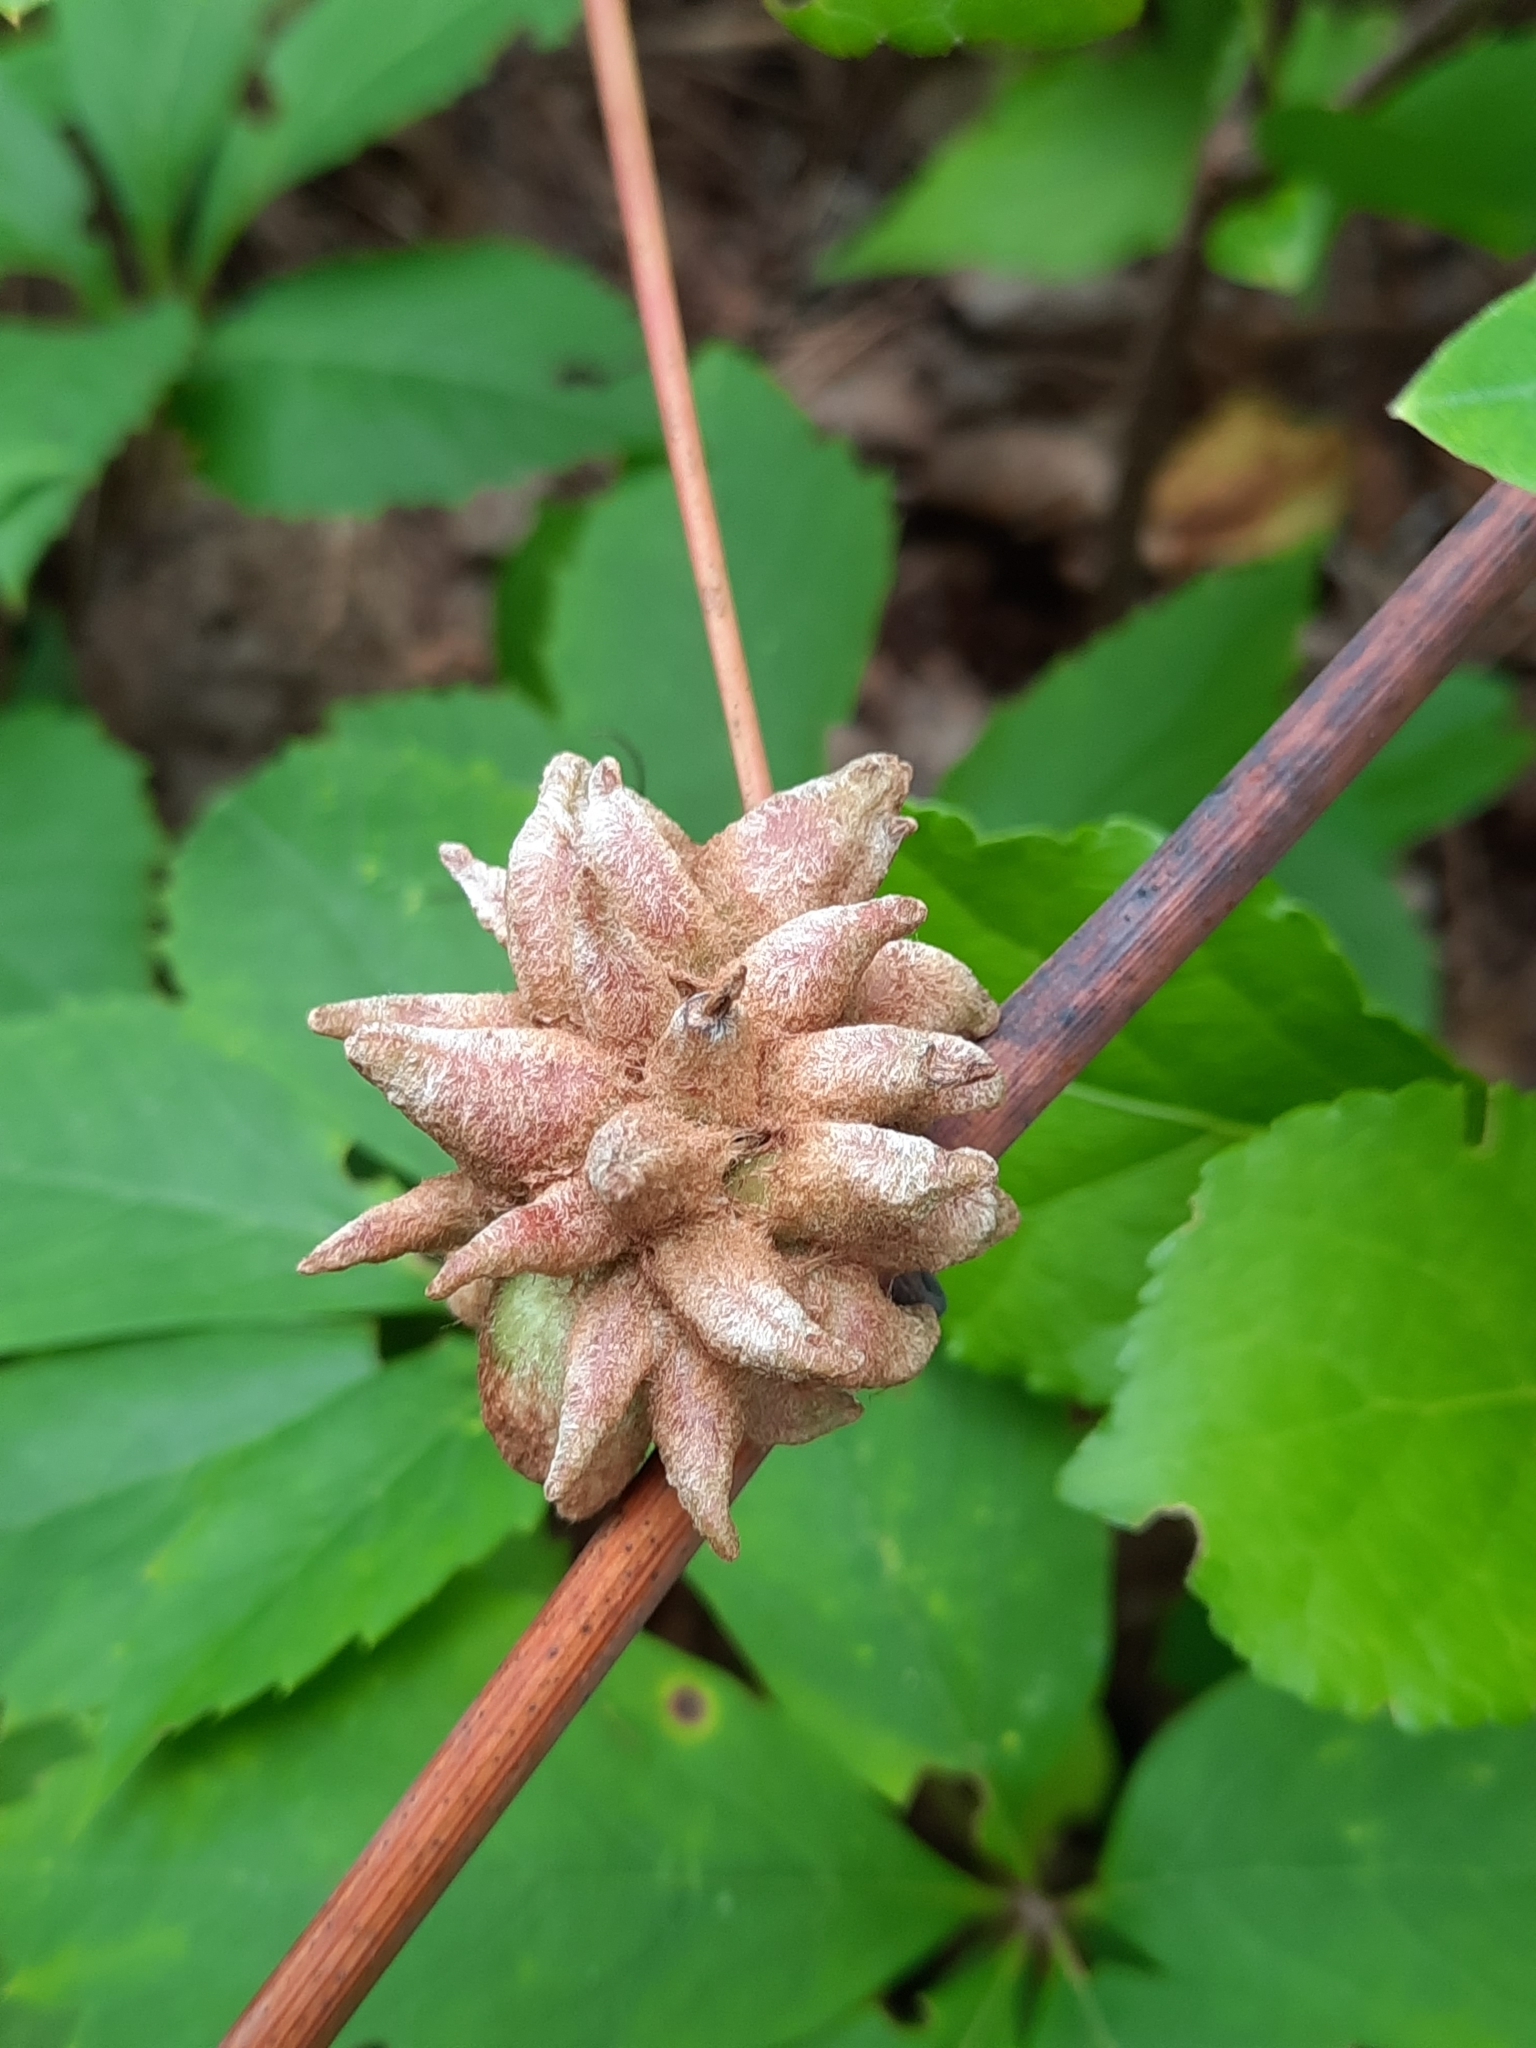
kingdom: Animalia
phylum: Arthropoda
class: Insecta
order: Diptera
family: Cecidomyiidae
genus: Ampelomyia
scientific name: Ampelomyia vitiscoryloides
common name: Grape filbert gall
